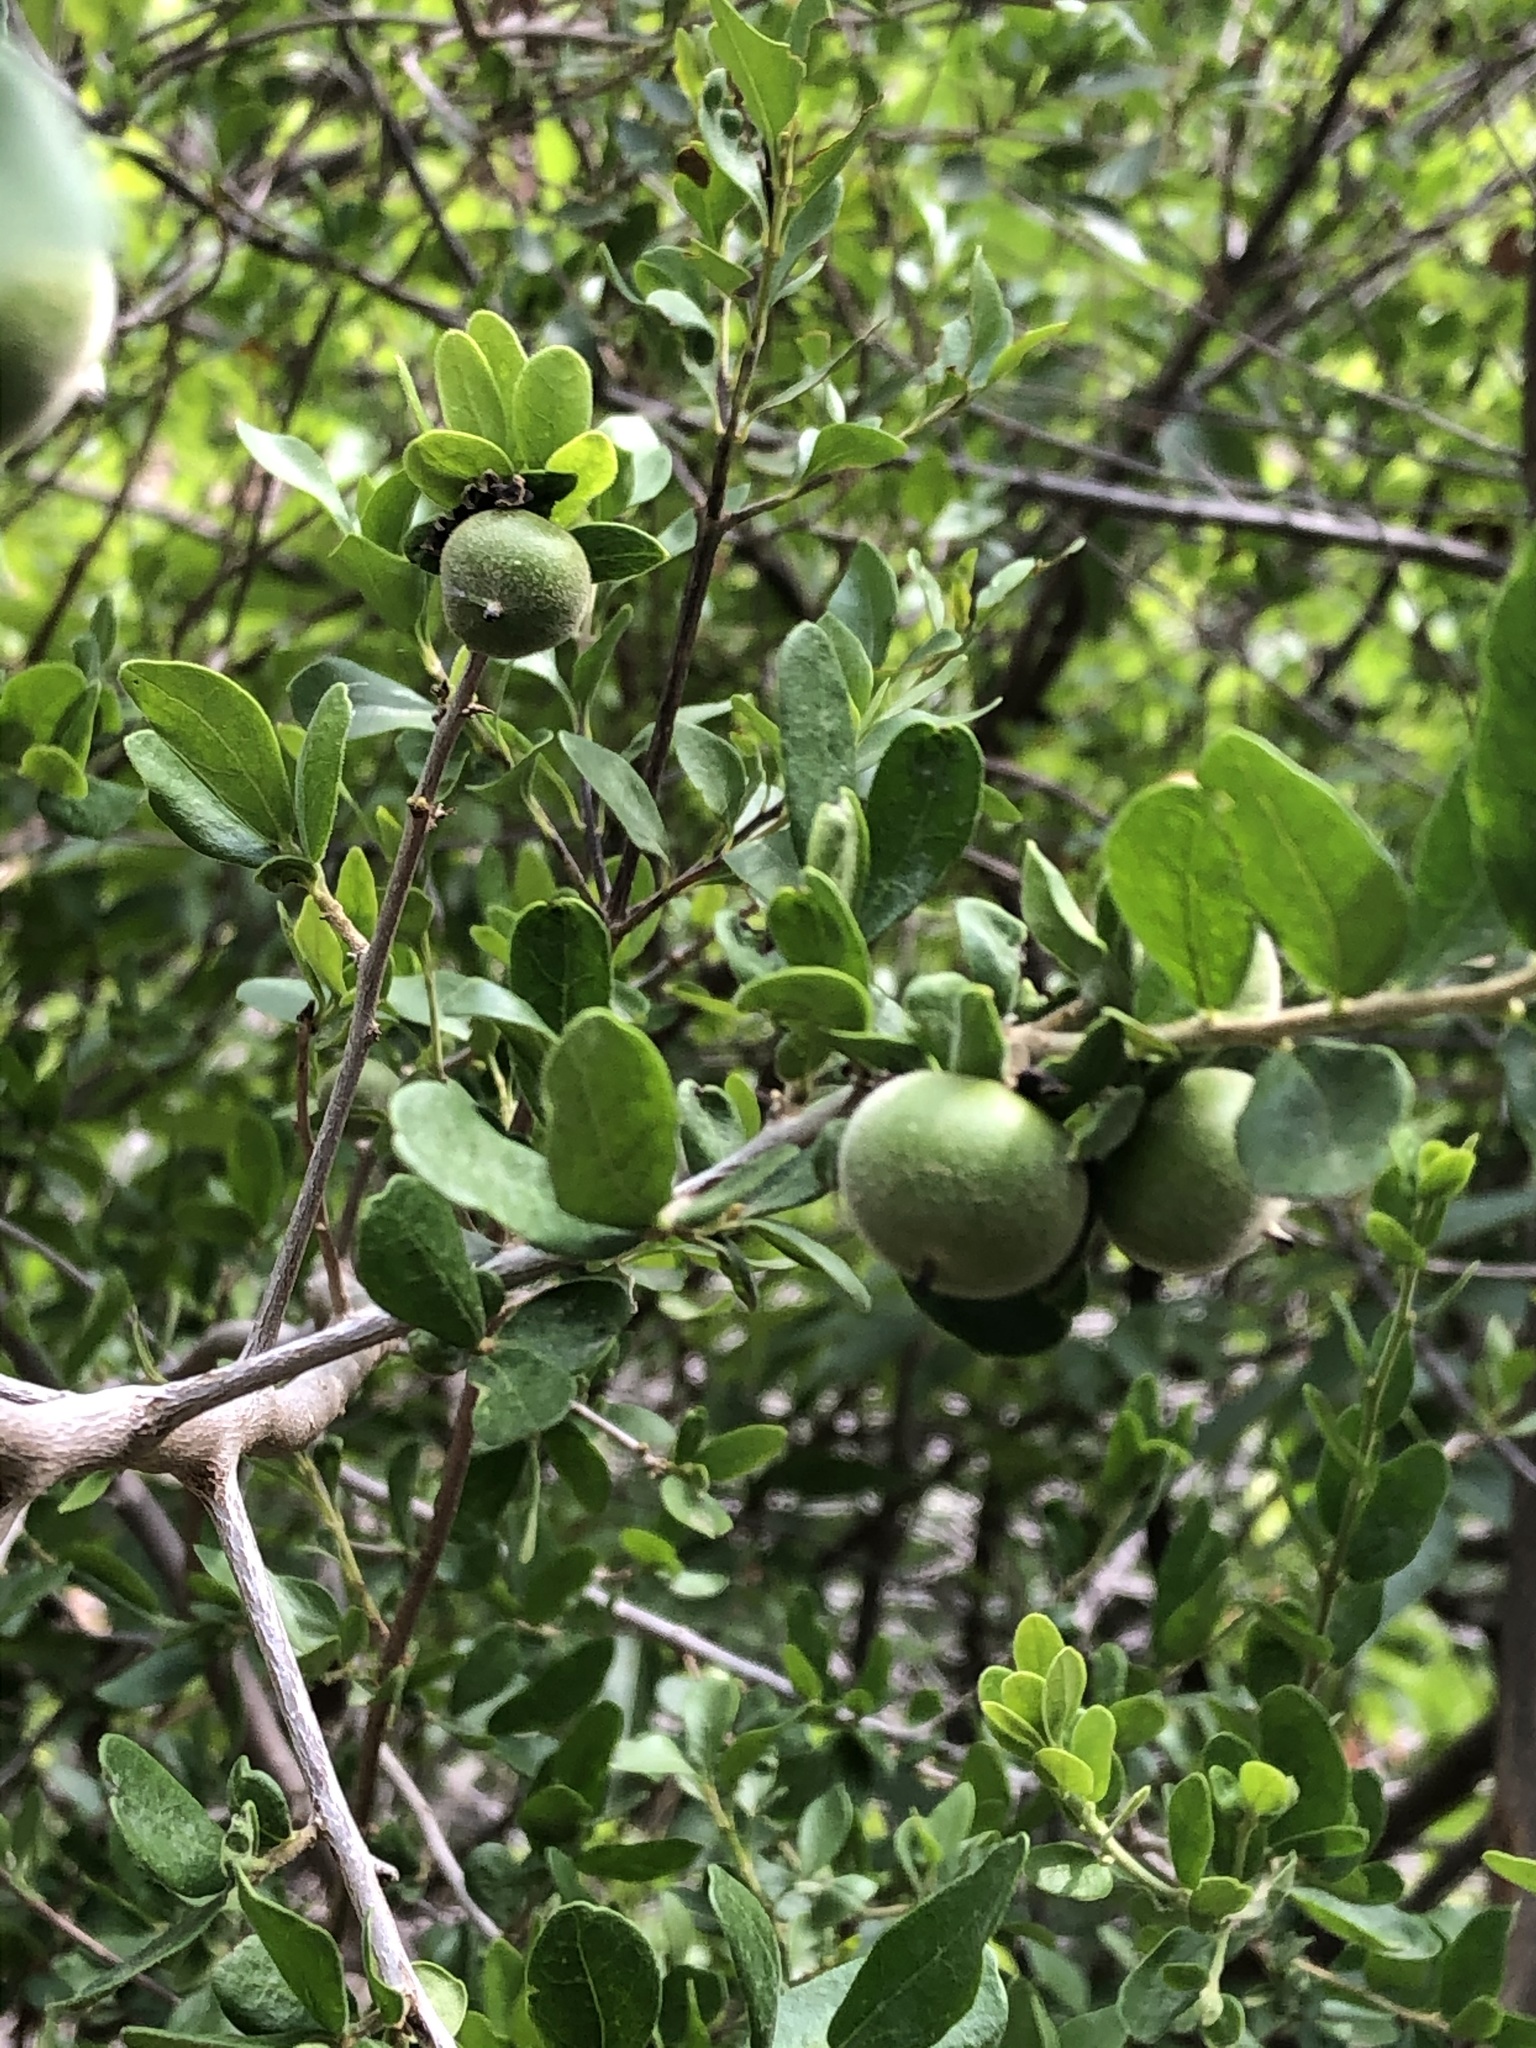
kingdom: Plantae
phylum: Tracheophyta
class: Magnoliopsida
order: Ericales
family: Ebenaceae
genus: Diospyros
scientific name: Diospyros texana
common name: Texas persimmon
